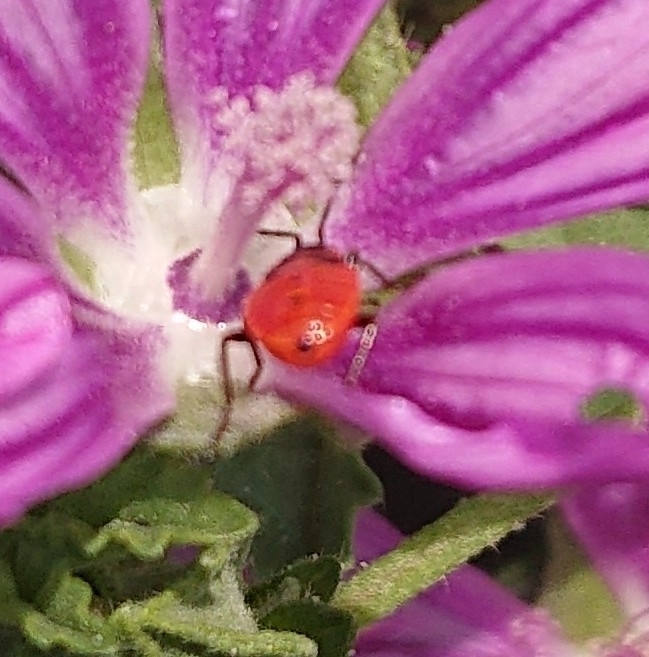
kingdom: Animalia
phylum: Arthropoda
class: Insecta
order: Hemiptera
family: Pyrrhocoridae
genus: Pyrrhocoris
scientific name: Pyrrhocoris apterus
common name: Firebug
